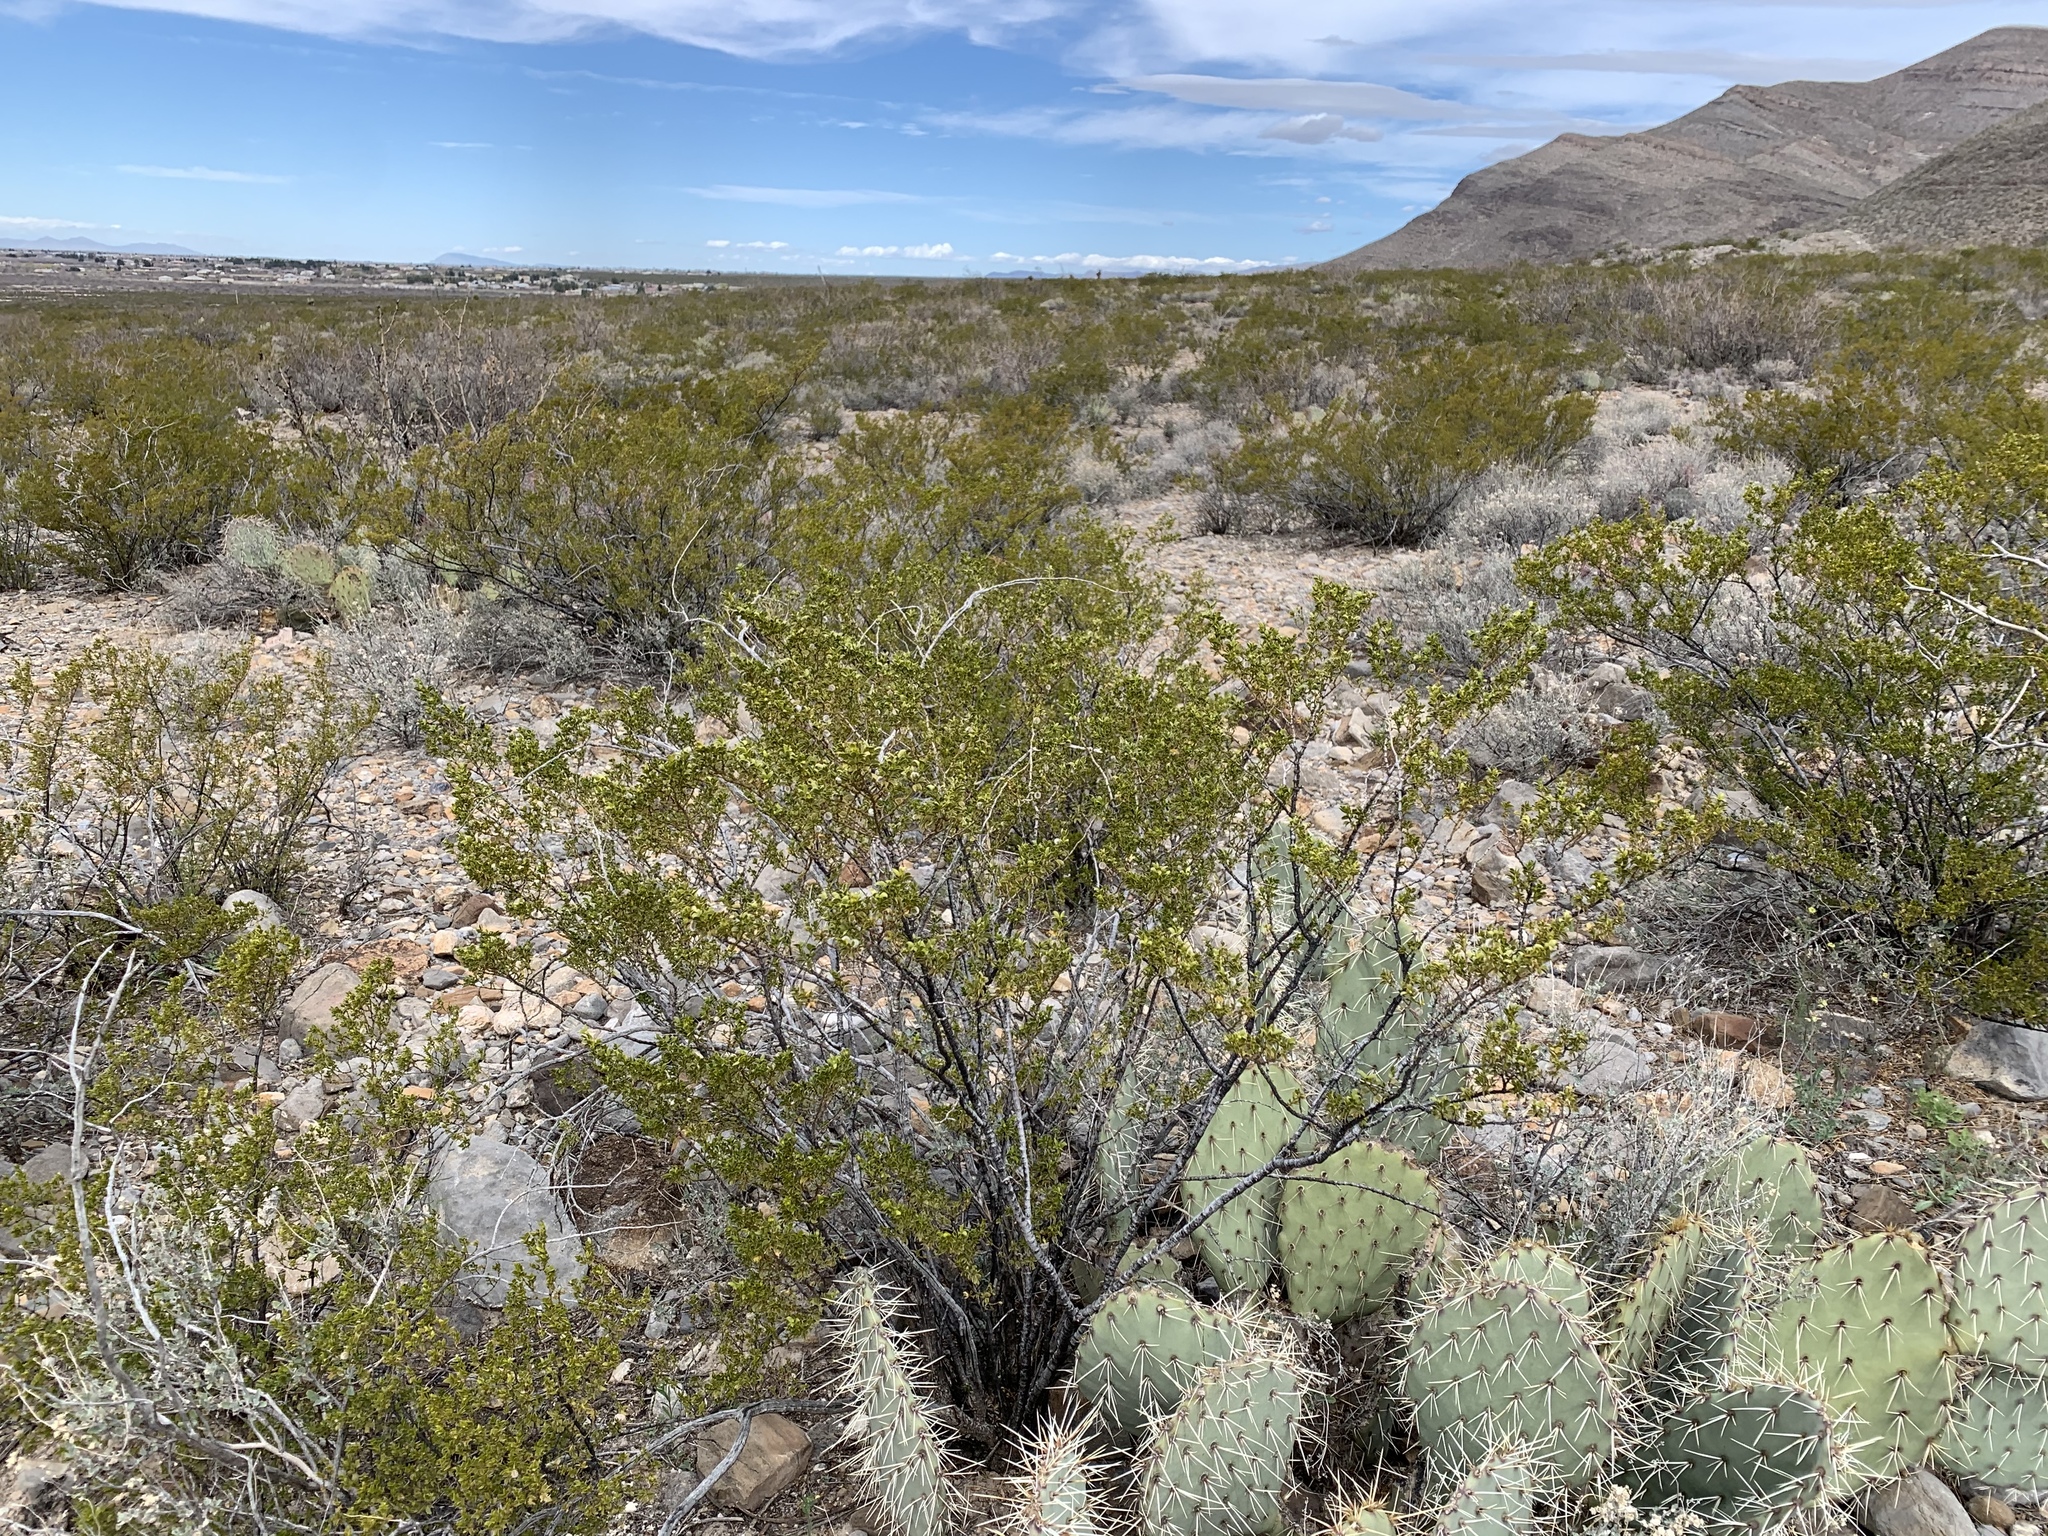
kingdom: Plantae
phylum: Tracheophyta
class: Magnoliopsida
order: Zygophyllales
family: Zygophyllaceae
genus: Larrea
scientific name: Larrea tridentata
